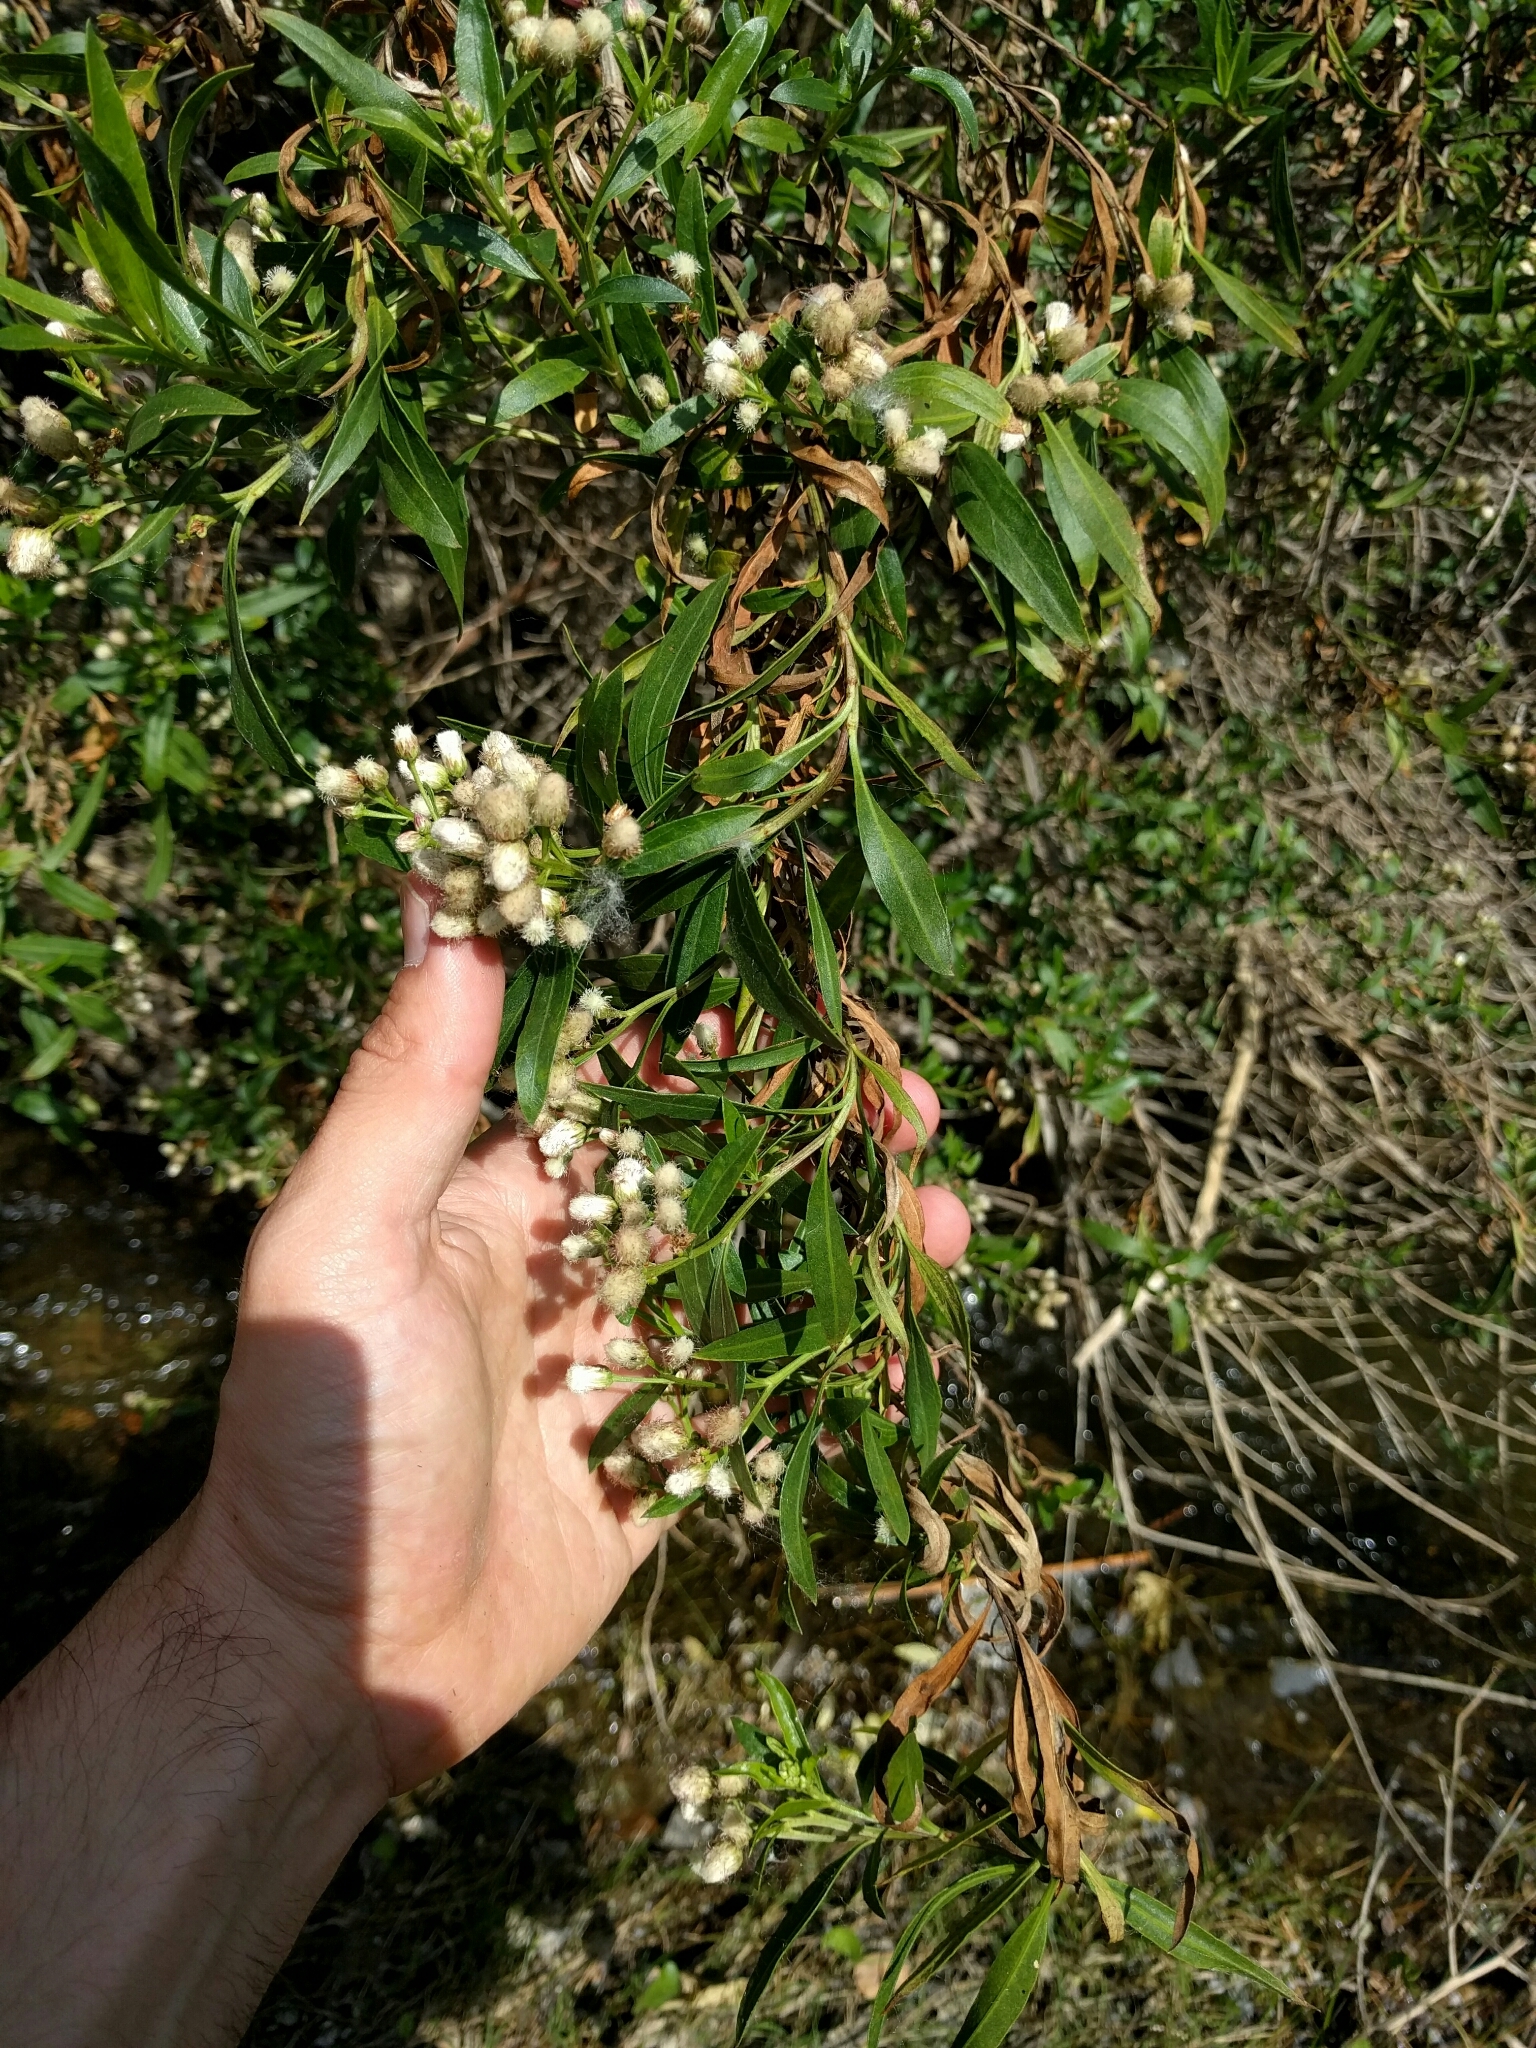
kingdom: Plantae
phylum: Tracheophyta
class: Magnoliopsida
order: Asterales
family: Asteraceae
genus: Baccharis
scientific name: Baccharis salicifolia
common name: Sticky baccharis
